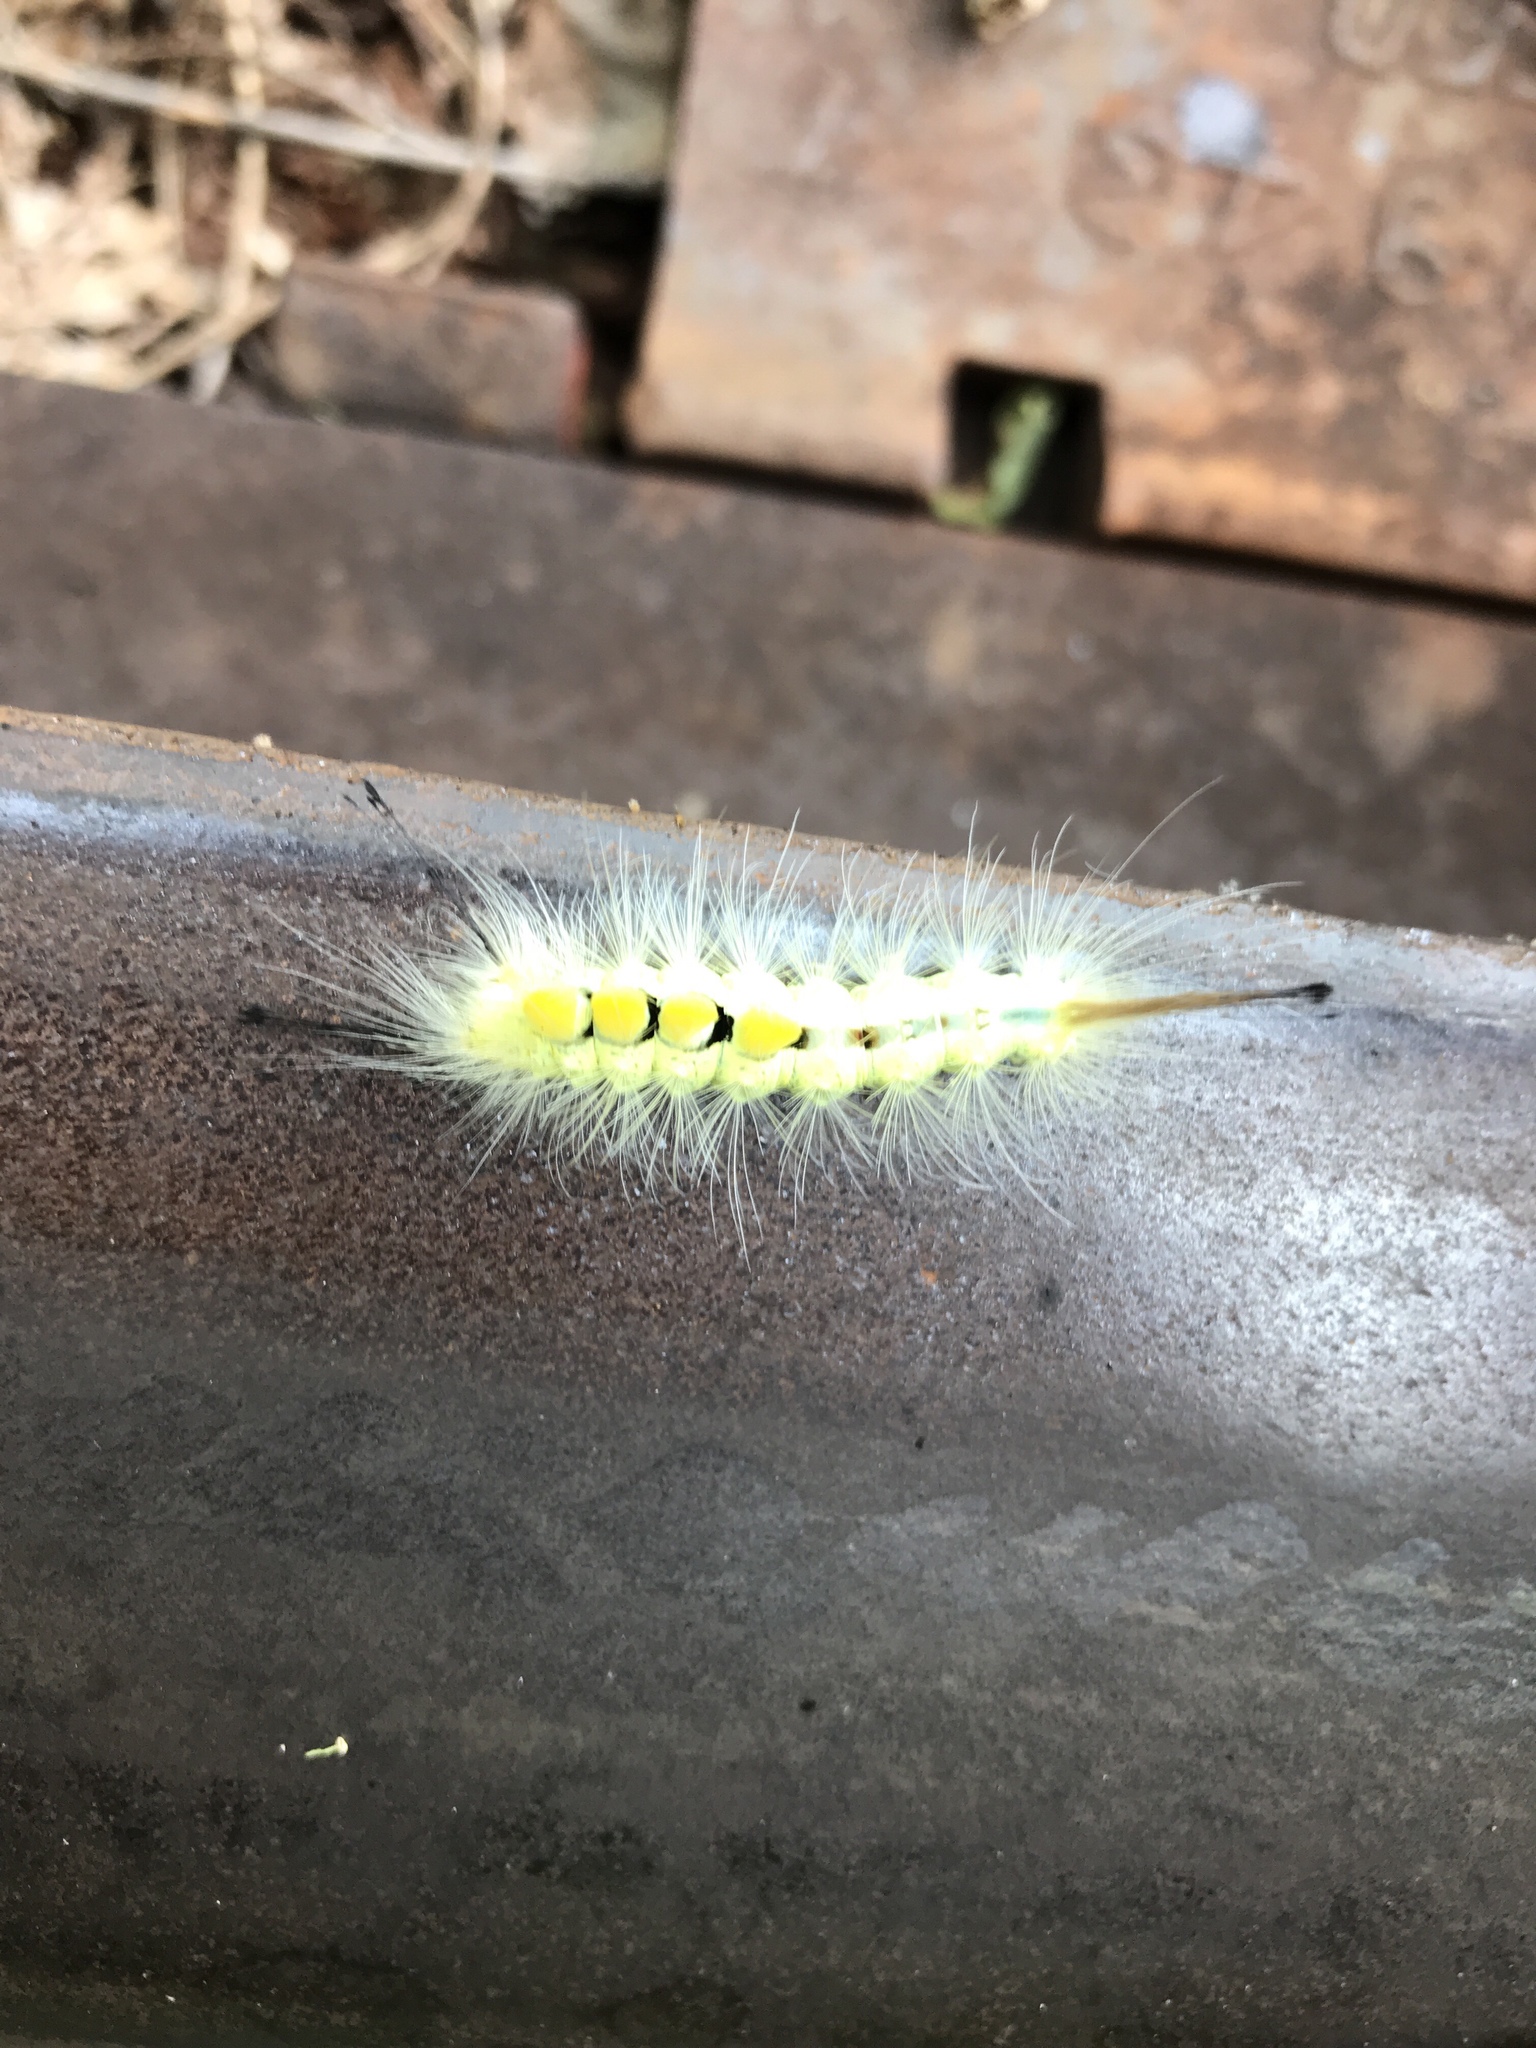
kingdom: Animalia
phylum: Arthropoda
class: Insecta
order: Lepidoptera
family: Erebidae
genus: Orgyia
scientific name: Orgyia definita
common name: Definite tussock moth
